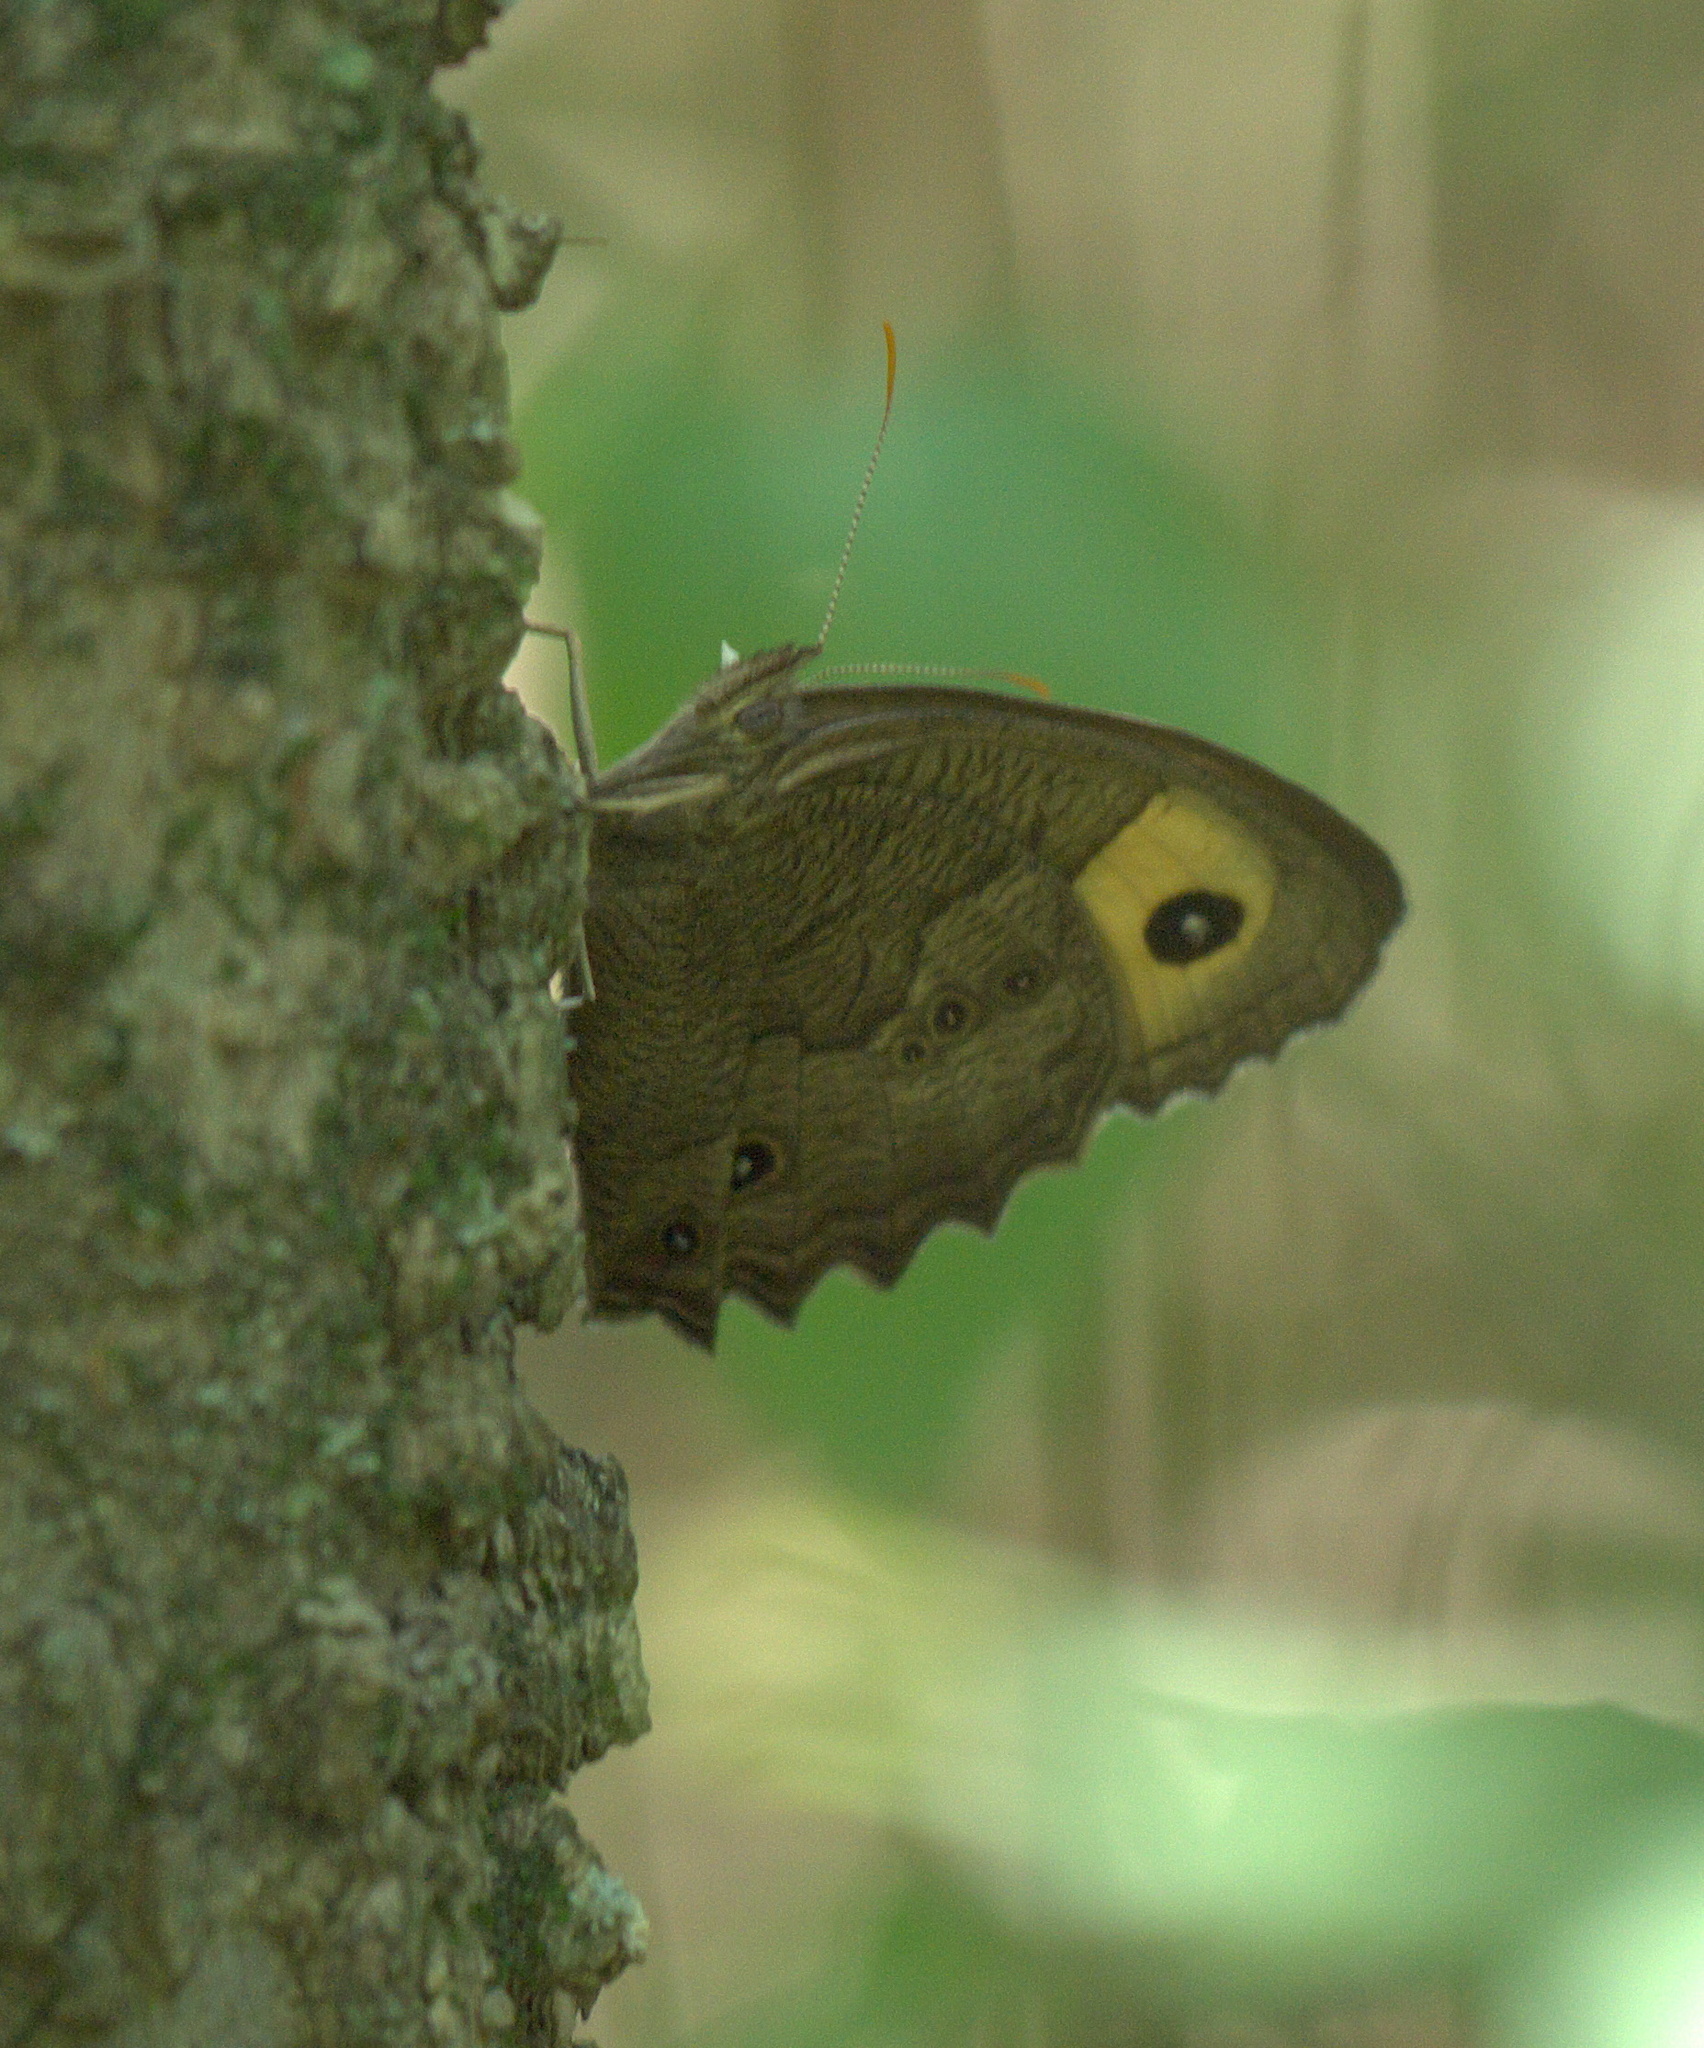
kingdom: Animalia
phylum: Arthropoda
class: Insecta
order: Lepidoptera
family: Nymphalidae
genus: Cercyonis
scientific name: Cercyonis pegala
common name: Common wood-nymph
